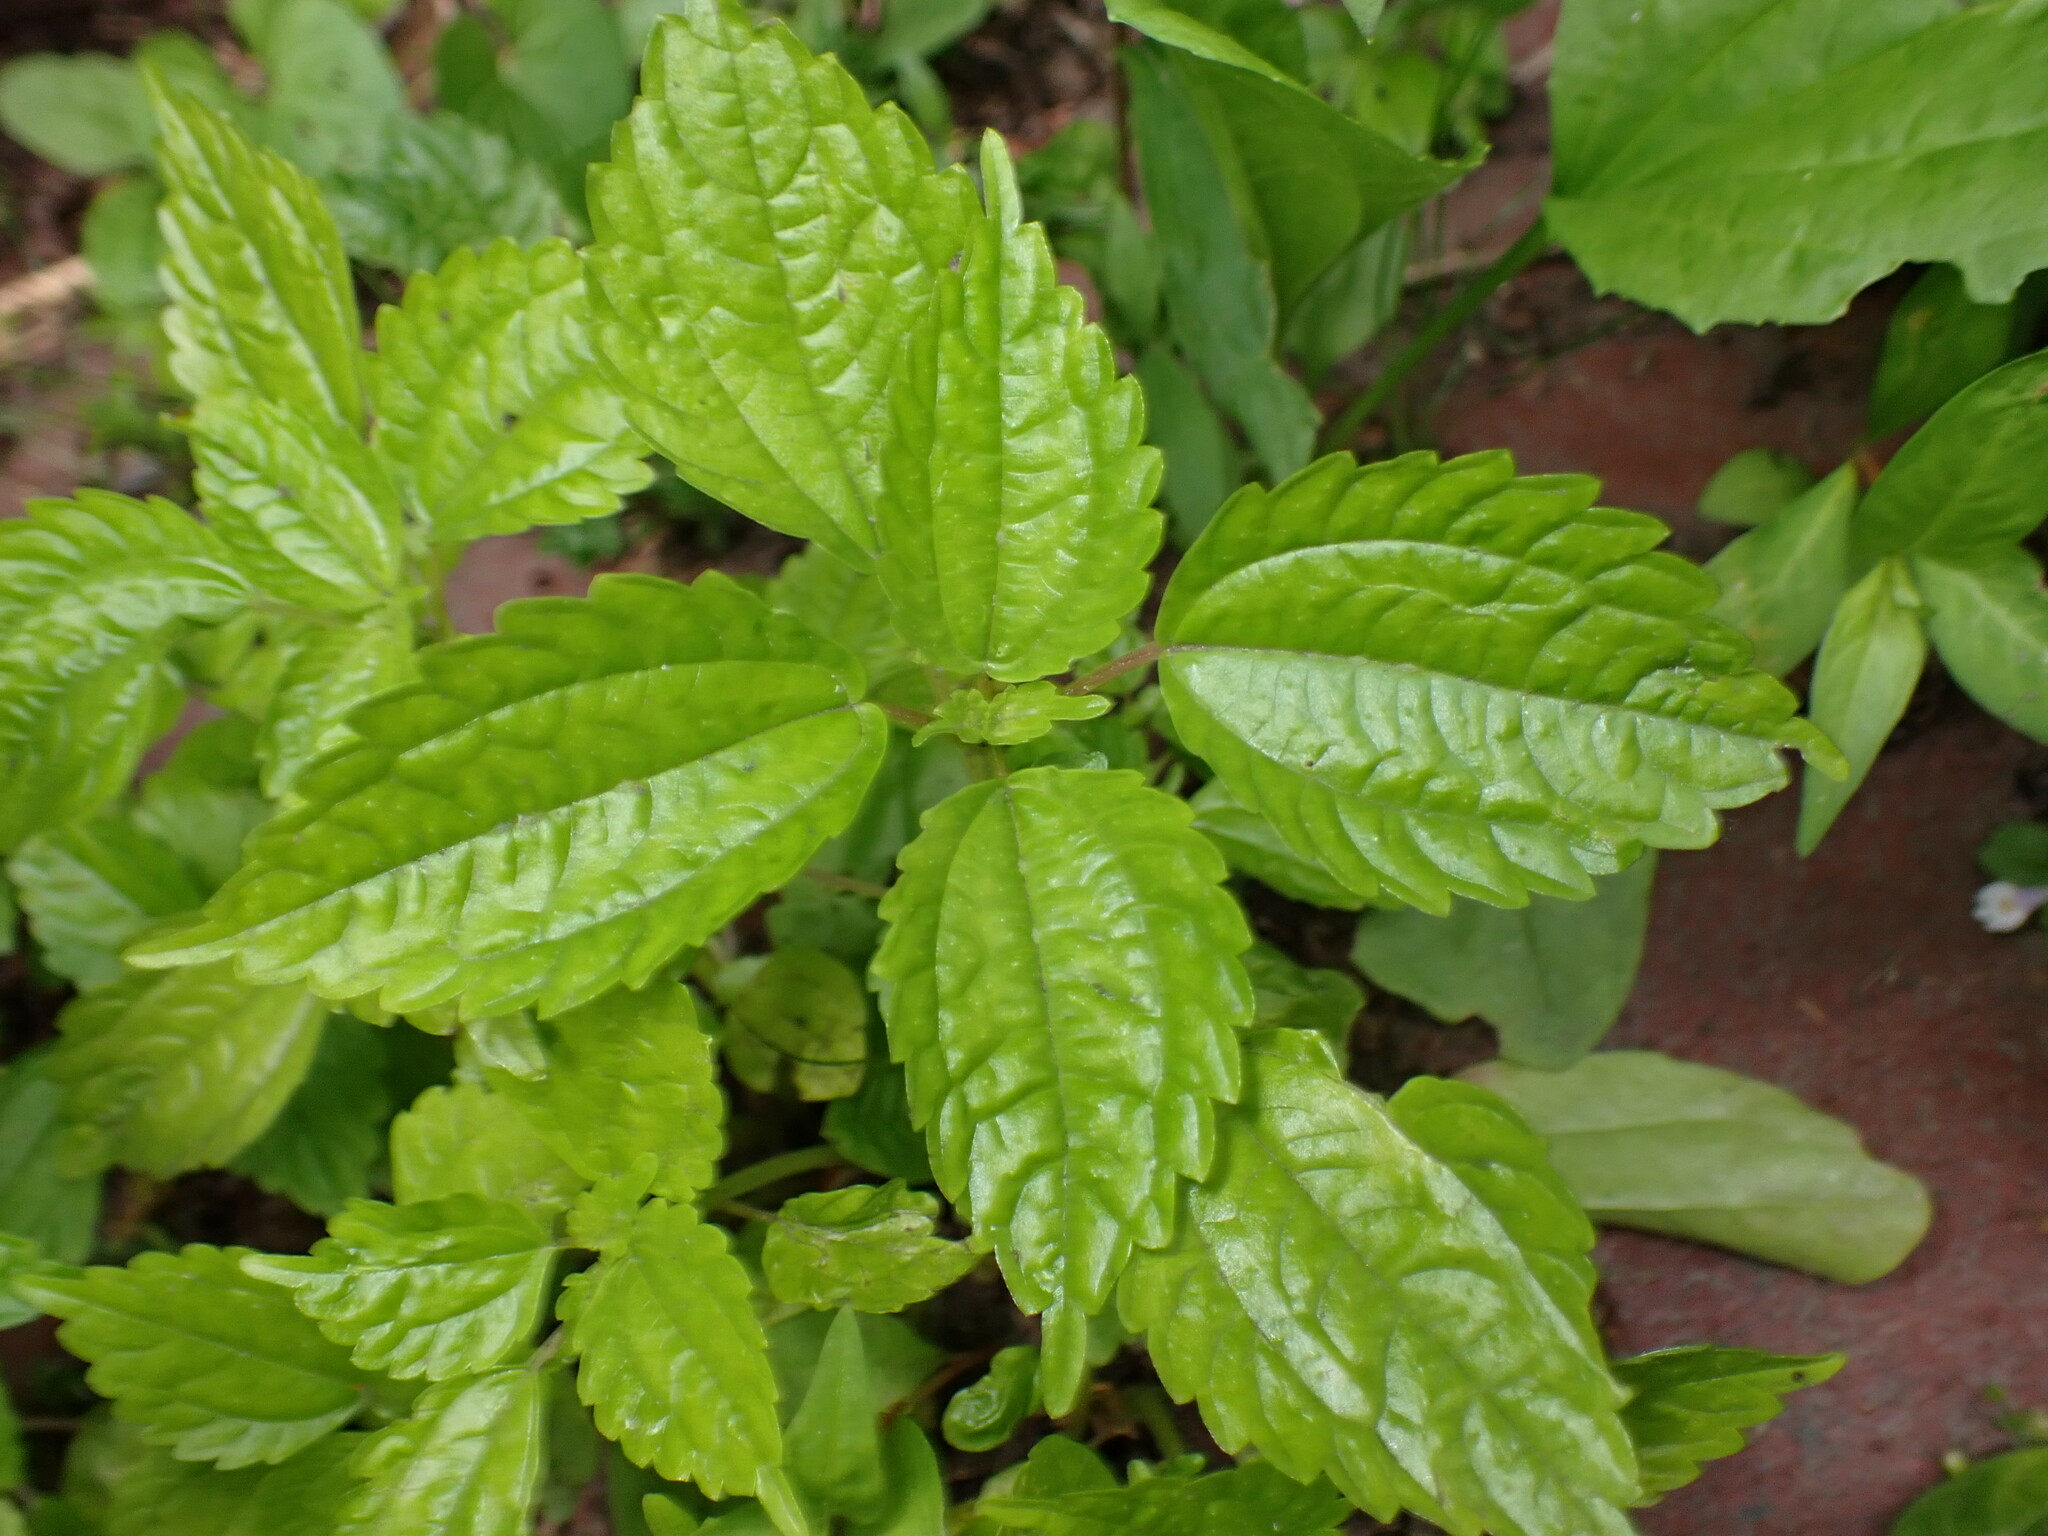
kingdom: Plantae
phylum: Tracheophyta
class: Magnoliopsida
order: Rosales
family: Urticaceae
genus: Pilea
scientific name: Pilea pumila
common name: Clearweed
